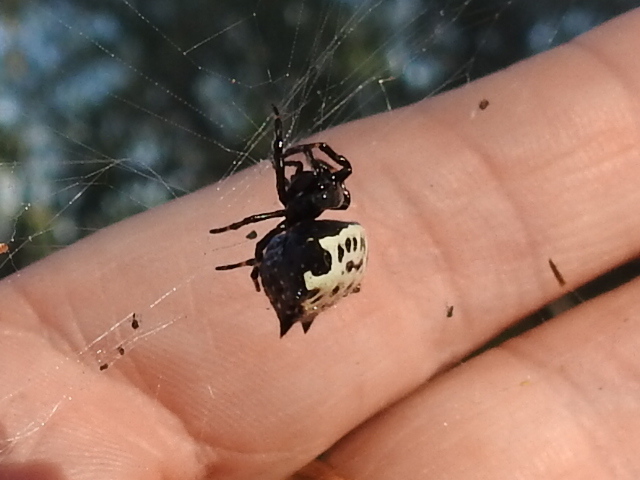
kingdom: Animalia
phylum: Arthropoda
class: Arachnida
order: Araneae
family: Araneidae
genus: Gasteracantha
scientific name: Gasteracantha cancriformis
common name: Orb weavers
